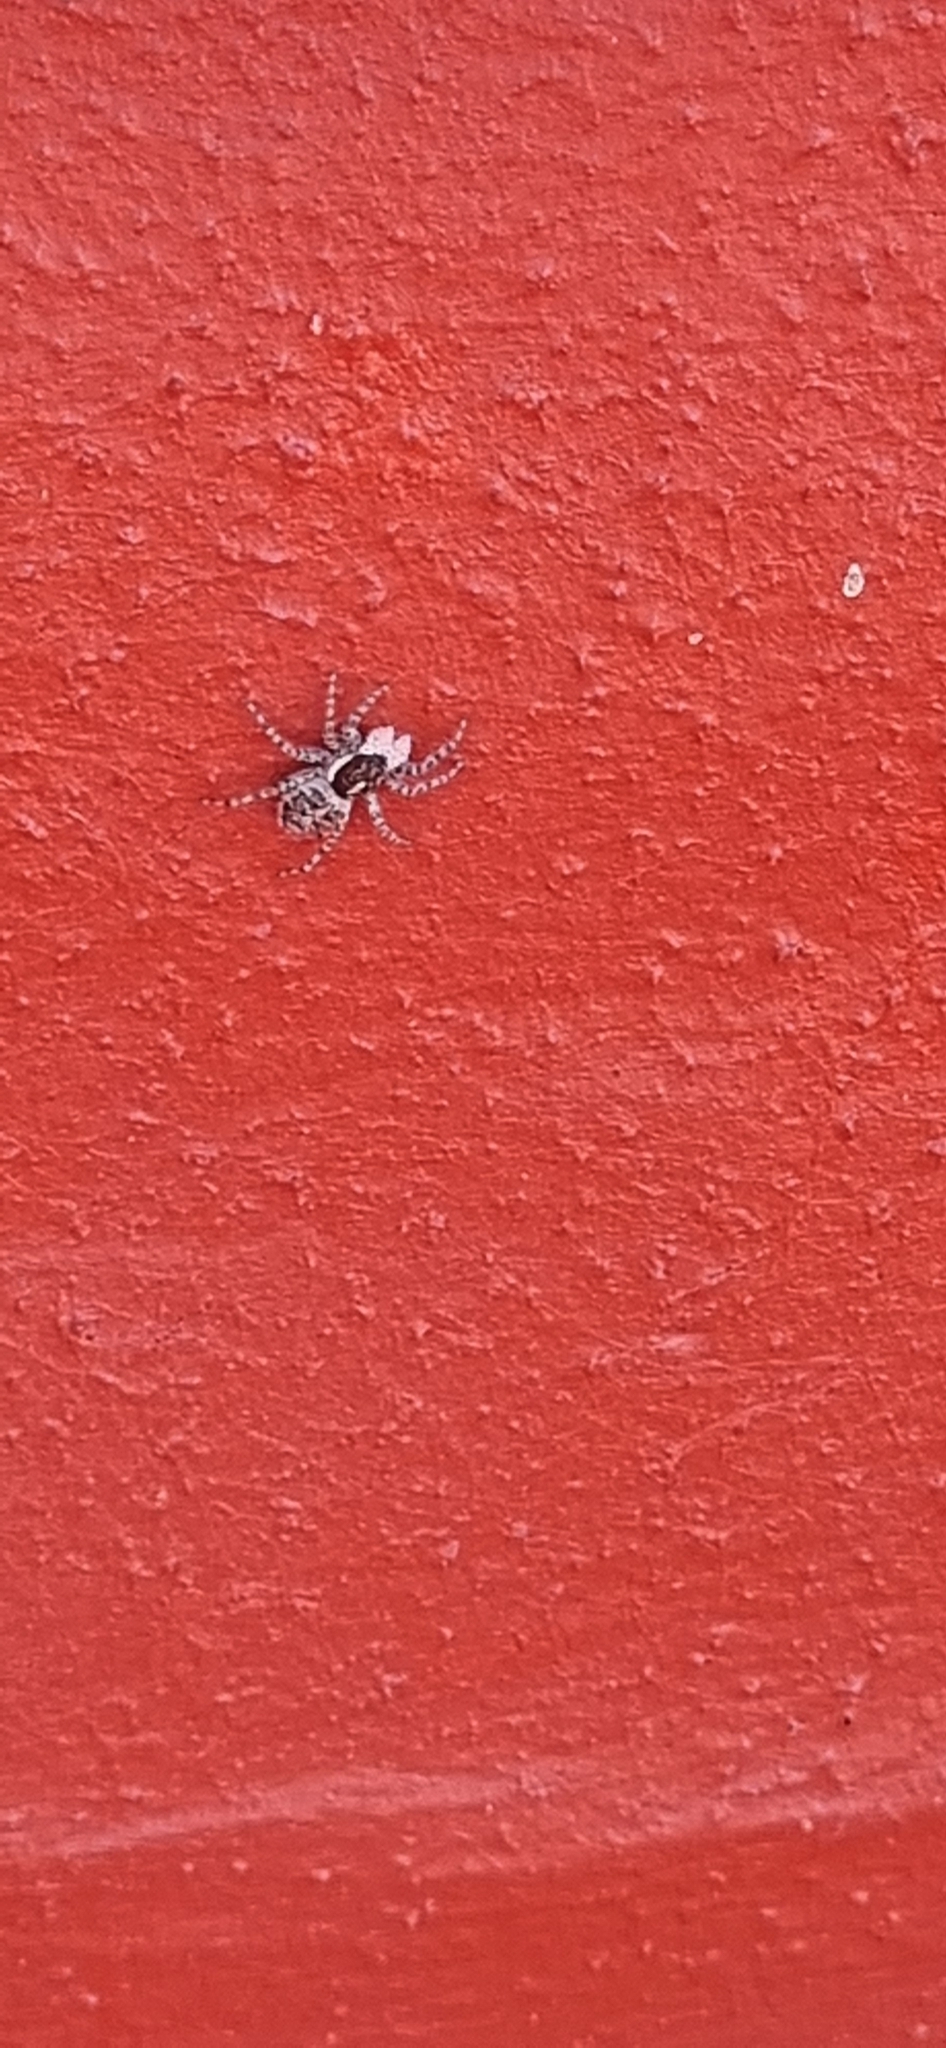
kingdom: Animalia
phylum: Arthropoda
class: Arachnida
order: Araneae
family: Salticidae
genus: Menemerus
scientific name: Menemerus semilimbatus
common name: Jumping spider
